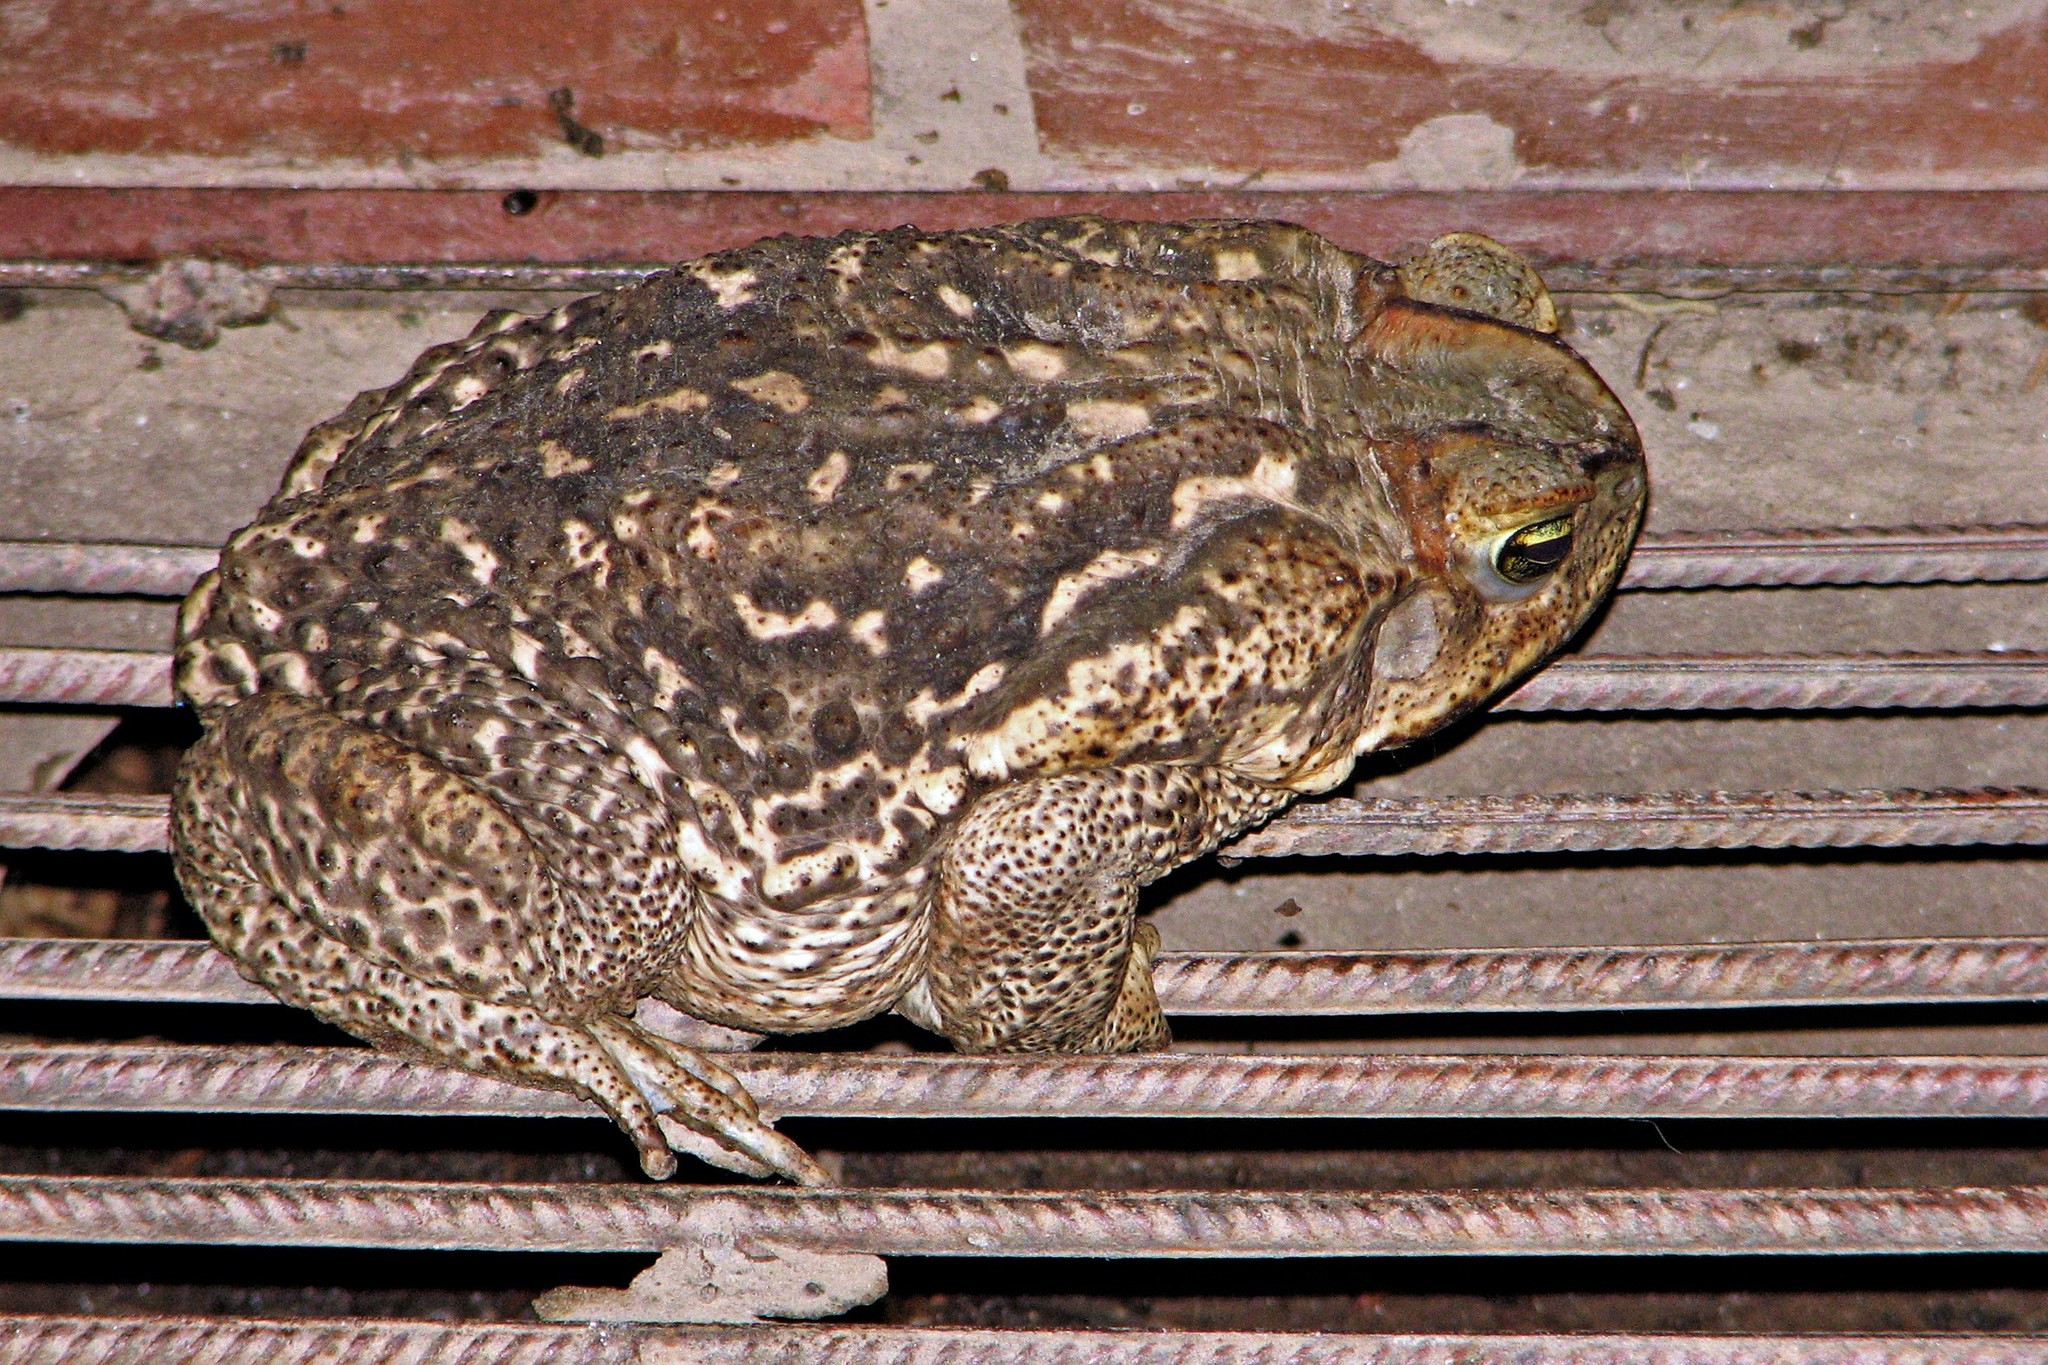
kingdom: Animalia
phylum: Chordata
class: Amphibia
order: Anura
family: Bufonidae
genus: Rhinella
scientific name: Rhinella diptycha
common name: Cope's toad
